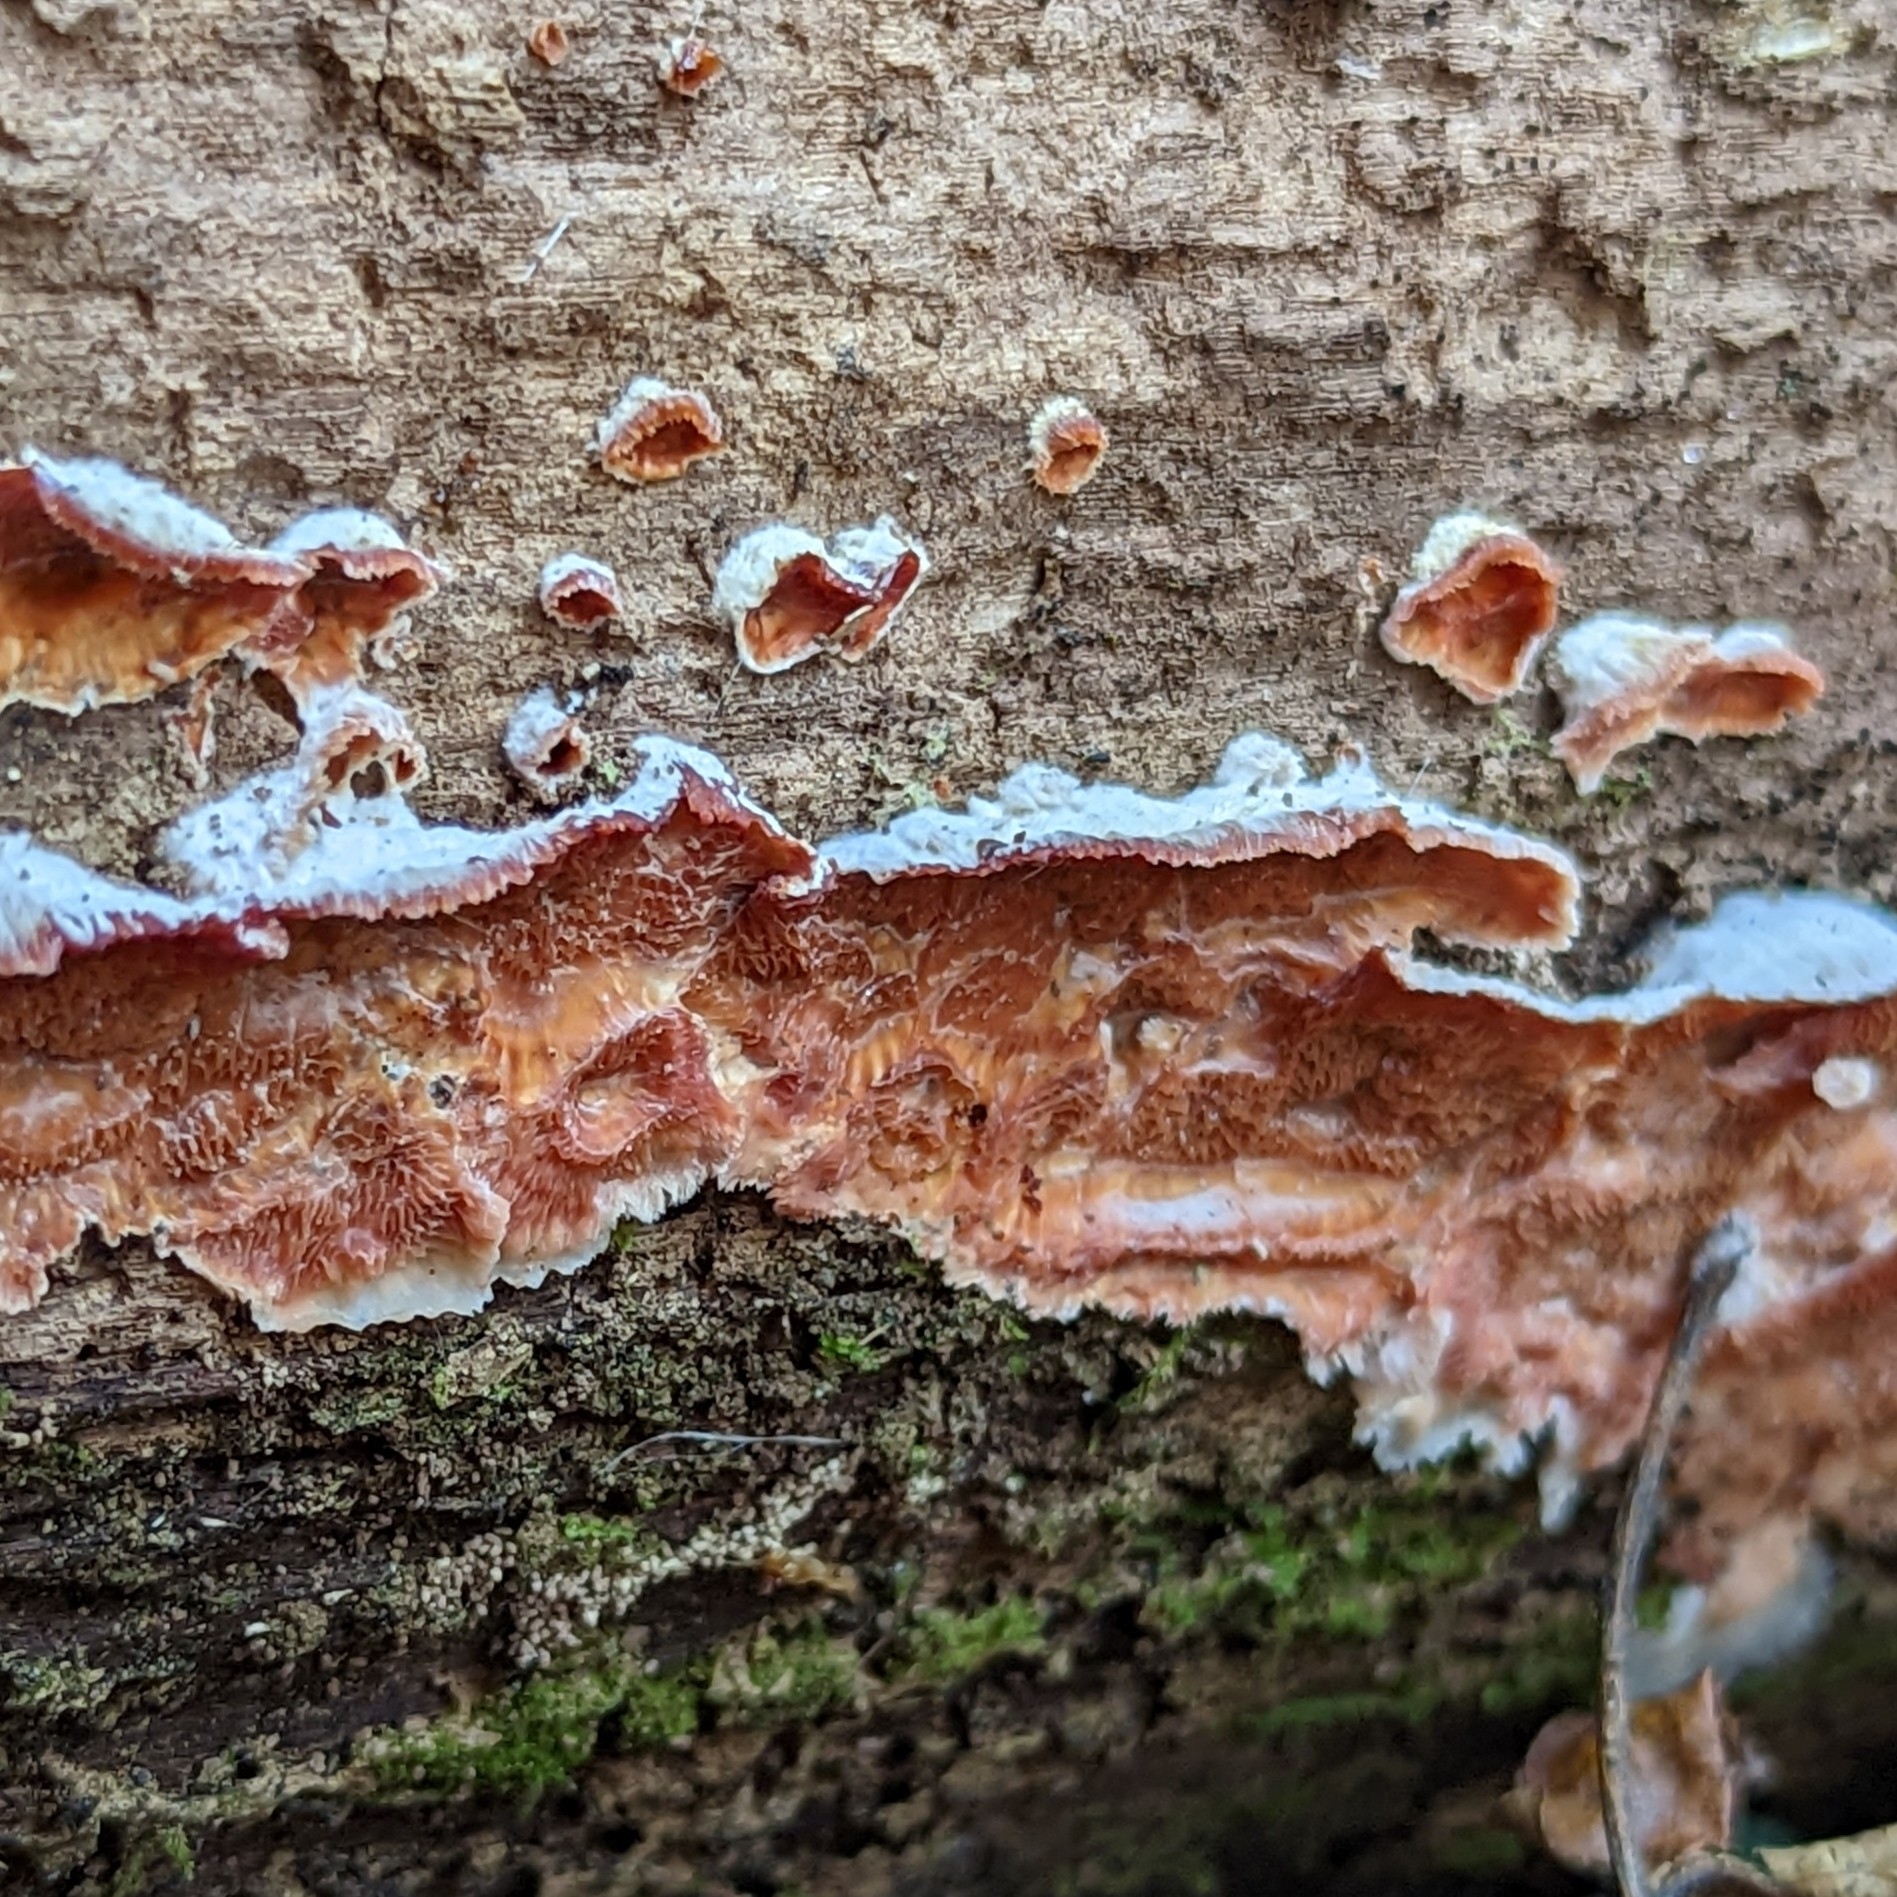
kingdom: Fungi
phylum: Basidiomycota
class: Agaricomycetes
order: Polyporales
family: Meruliaceae
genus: Phlebia
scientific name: Phlebia tremellosa
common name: Jelly rot
